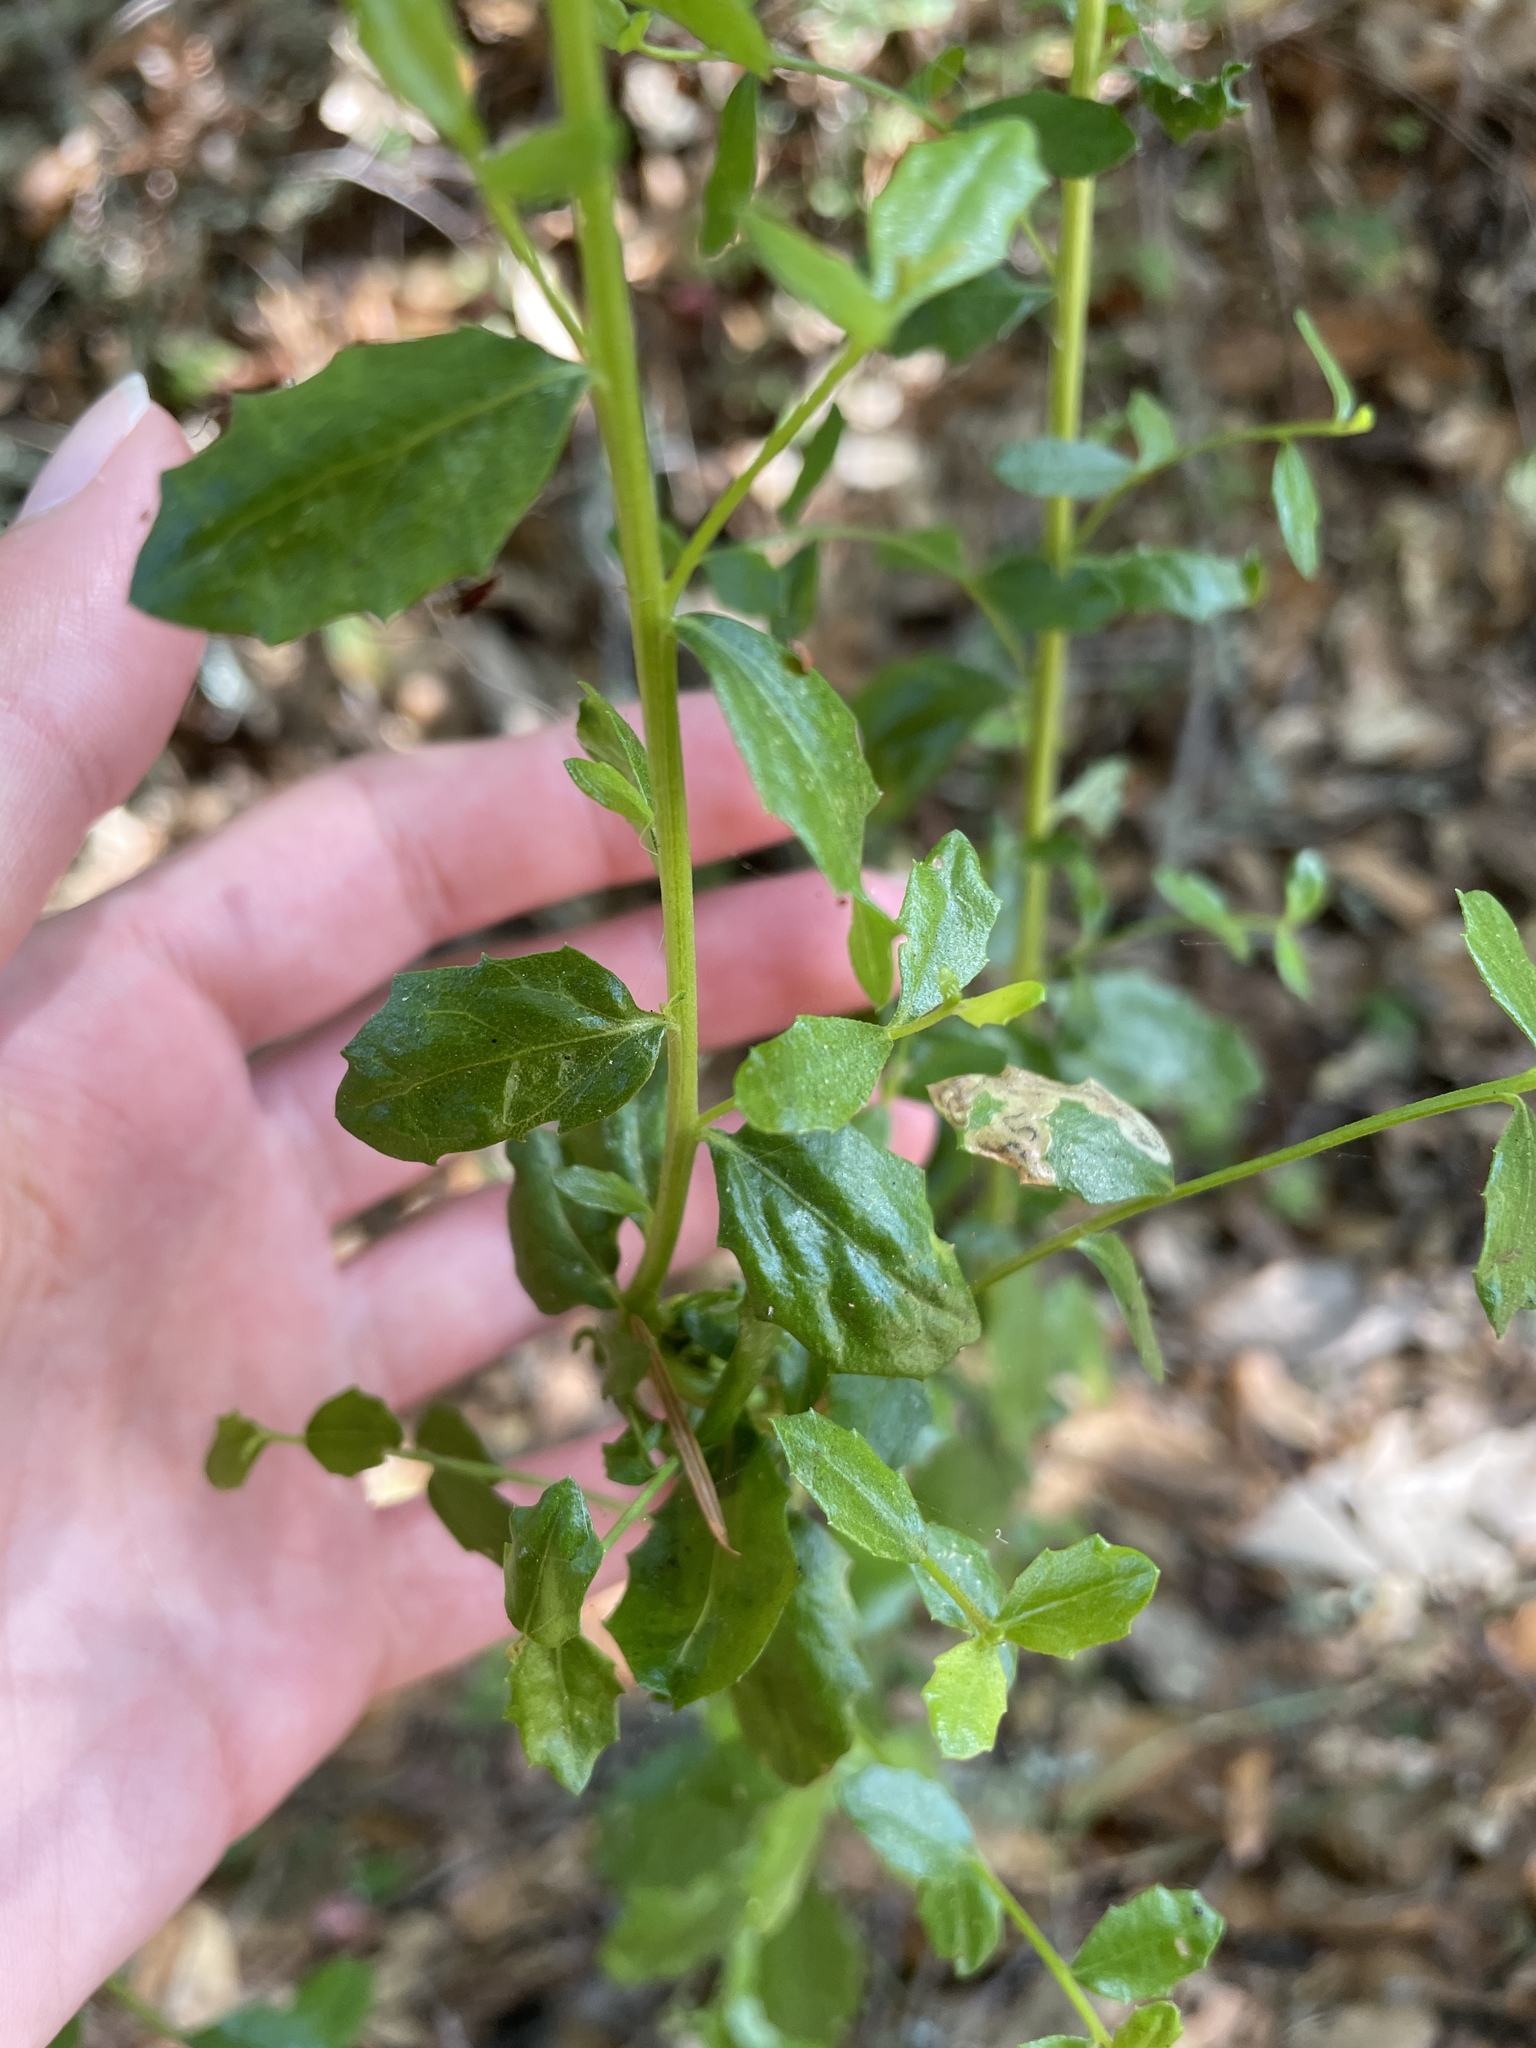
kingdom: Plantae
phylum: Tracheophyta
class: Magnoliopsida
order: Asterales
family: Asteraceae
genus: Baccharis
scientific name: Baccharis pilularis
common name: Coyotebrush
